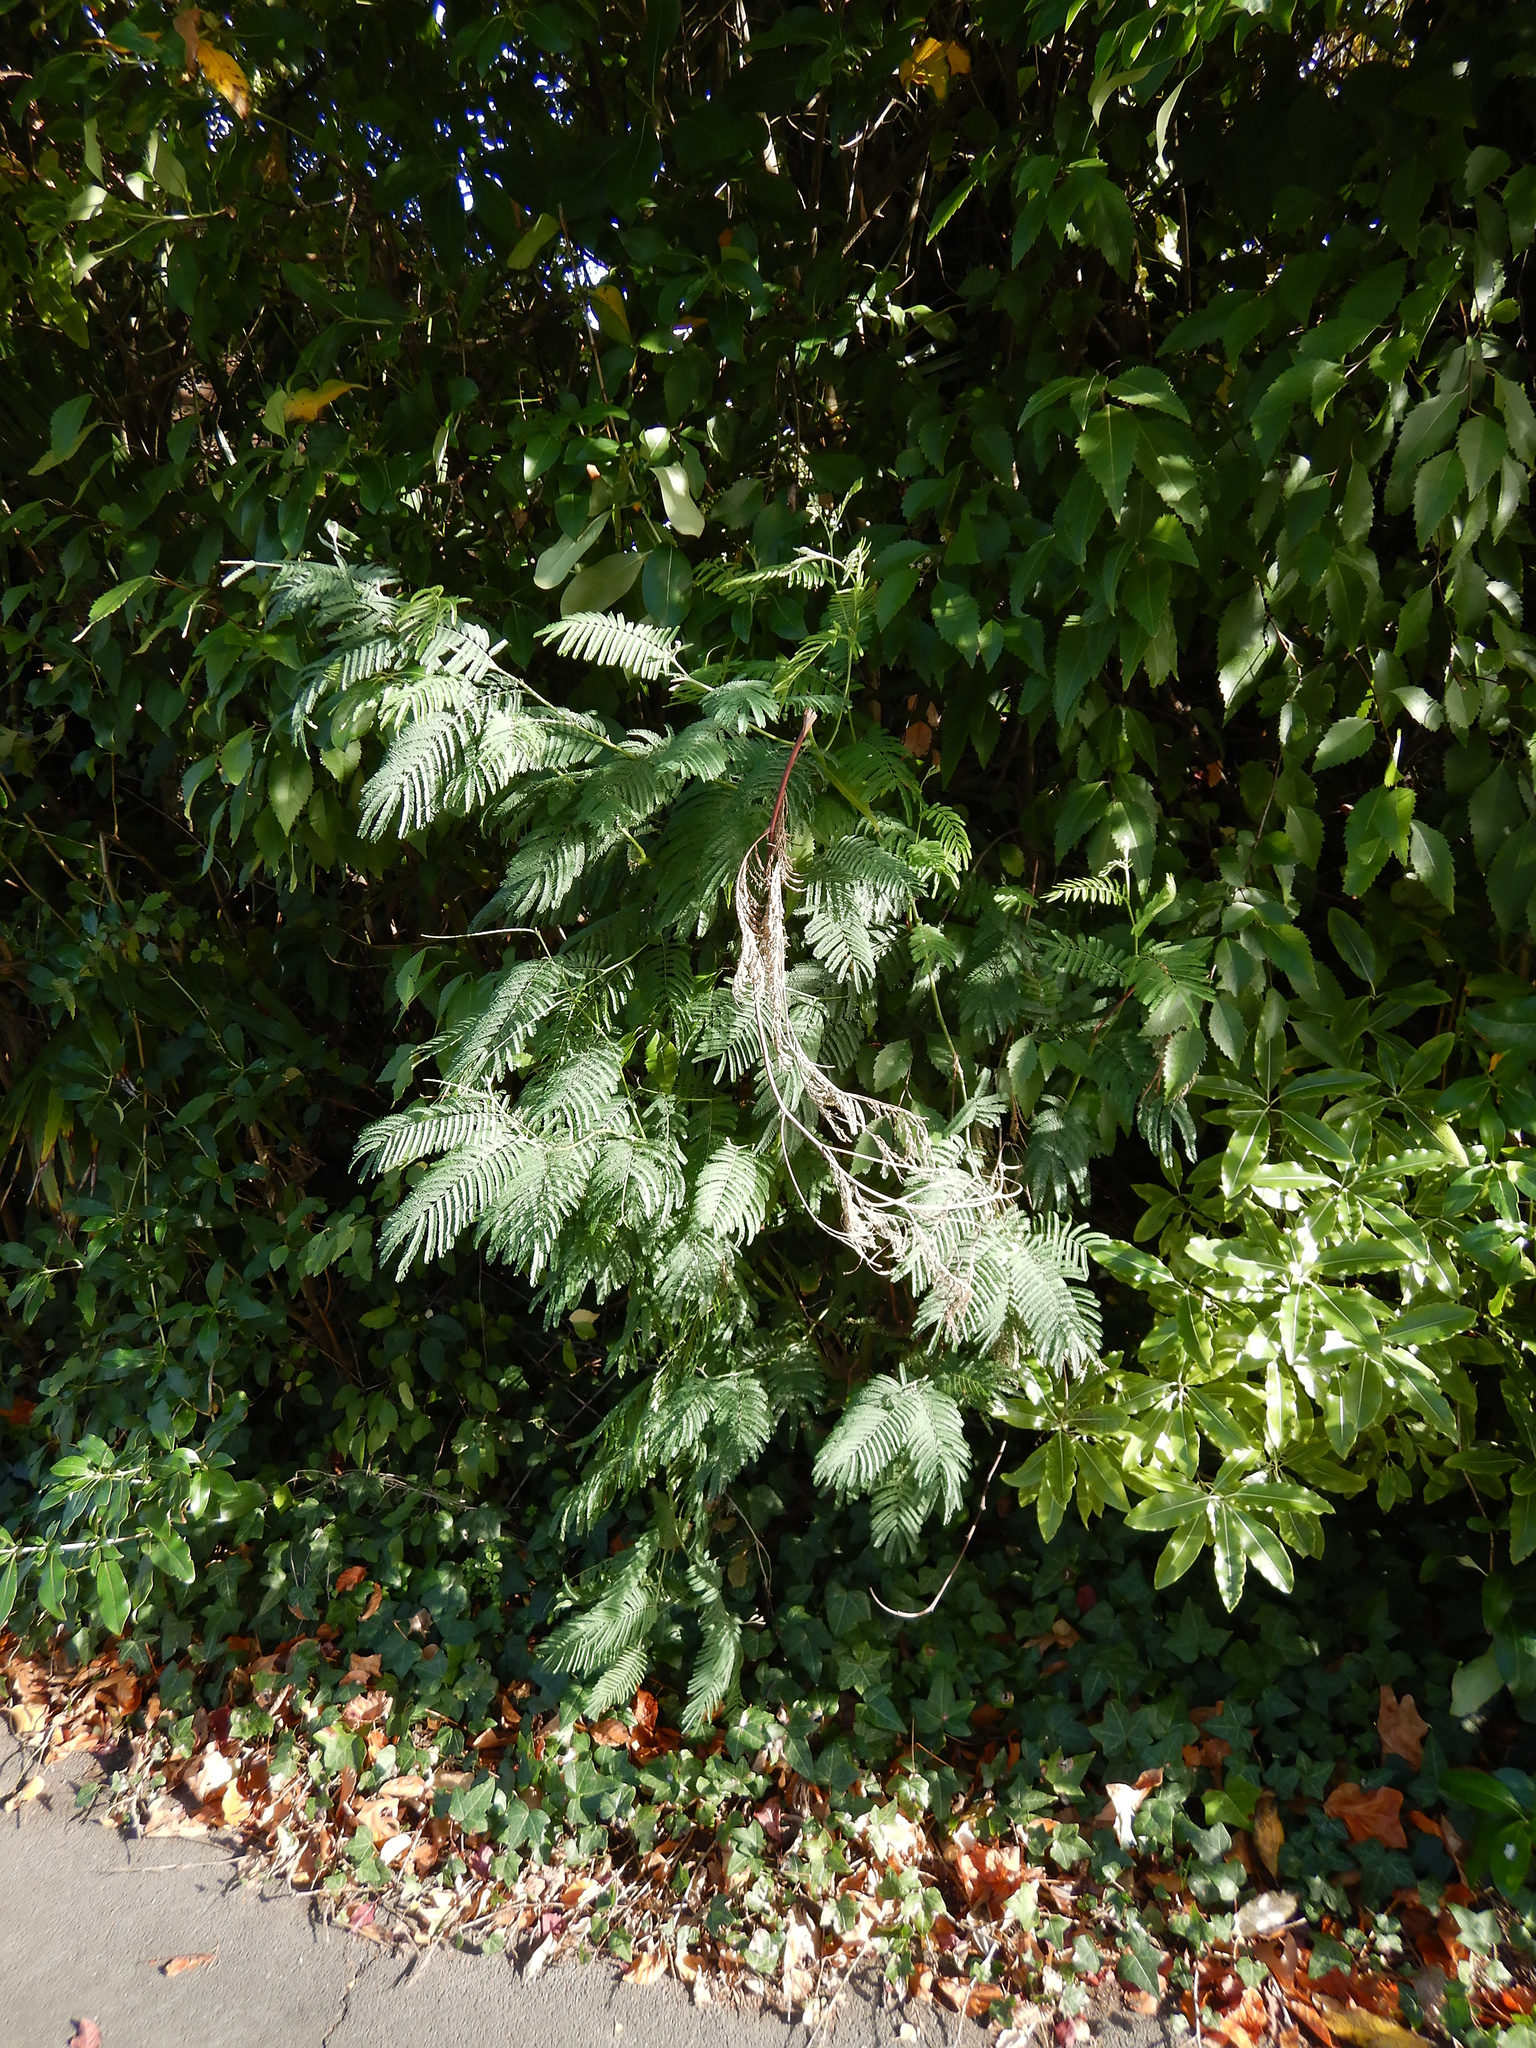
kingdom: Plantae
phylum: Tracheophyta
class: Magnoliopsida
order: Fabales
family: Fabaceae
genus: Acacia
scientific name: Acacia dealbata
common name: Silver wattle
